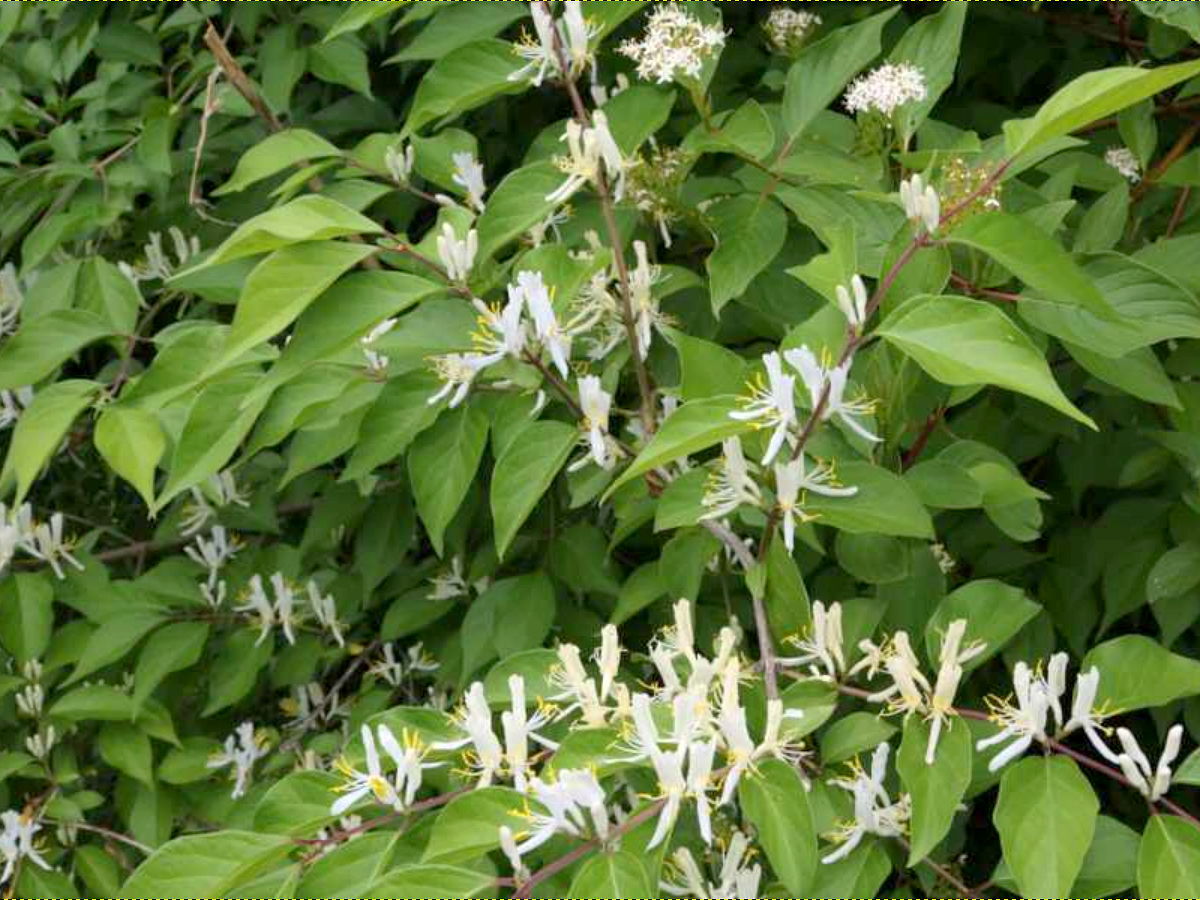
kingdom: Plantae
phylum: Tracheophyta
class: Magnoliopsida
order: Dipsacales
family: Caprifoliaceae
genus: Lonicera
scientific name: Lonicera maackii
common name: Amur honeysuckle
